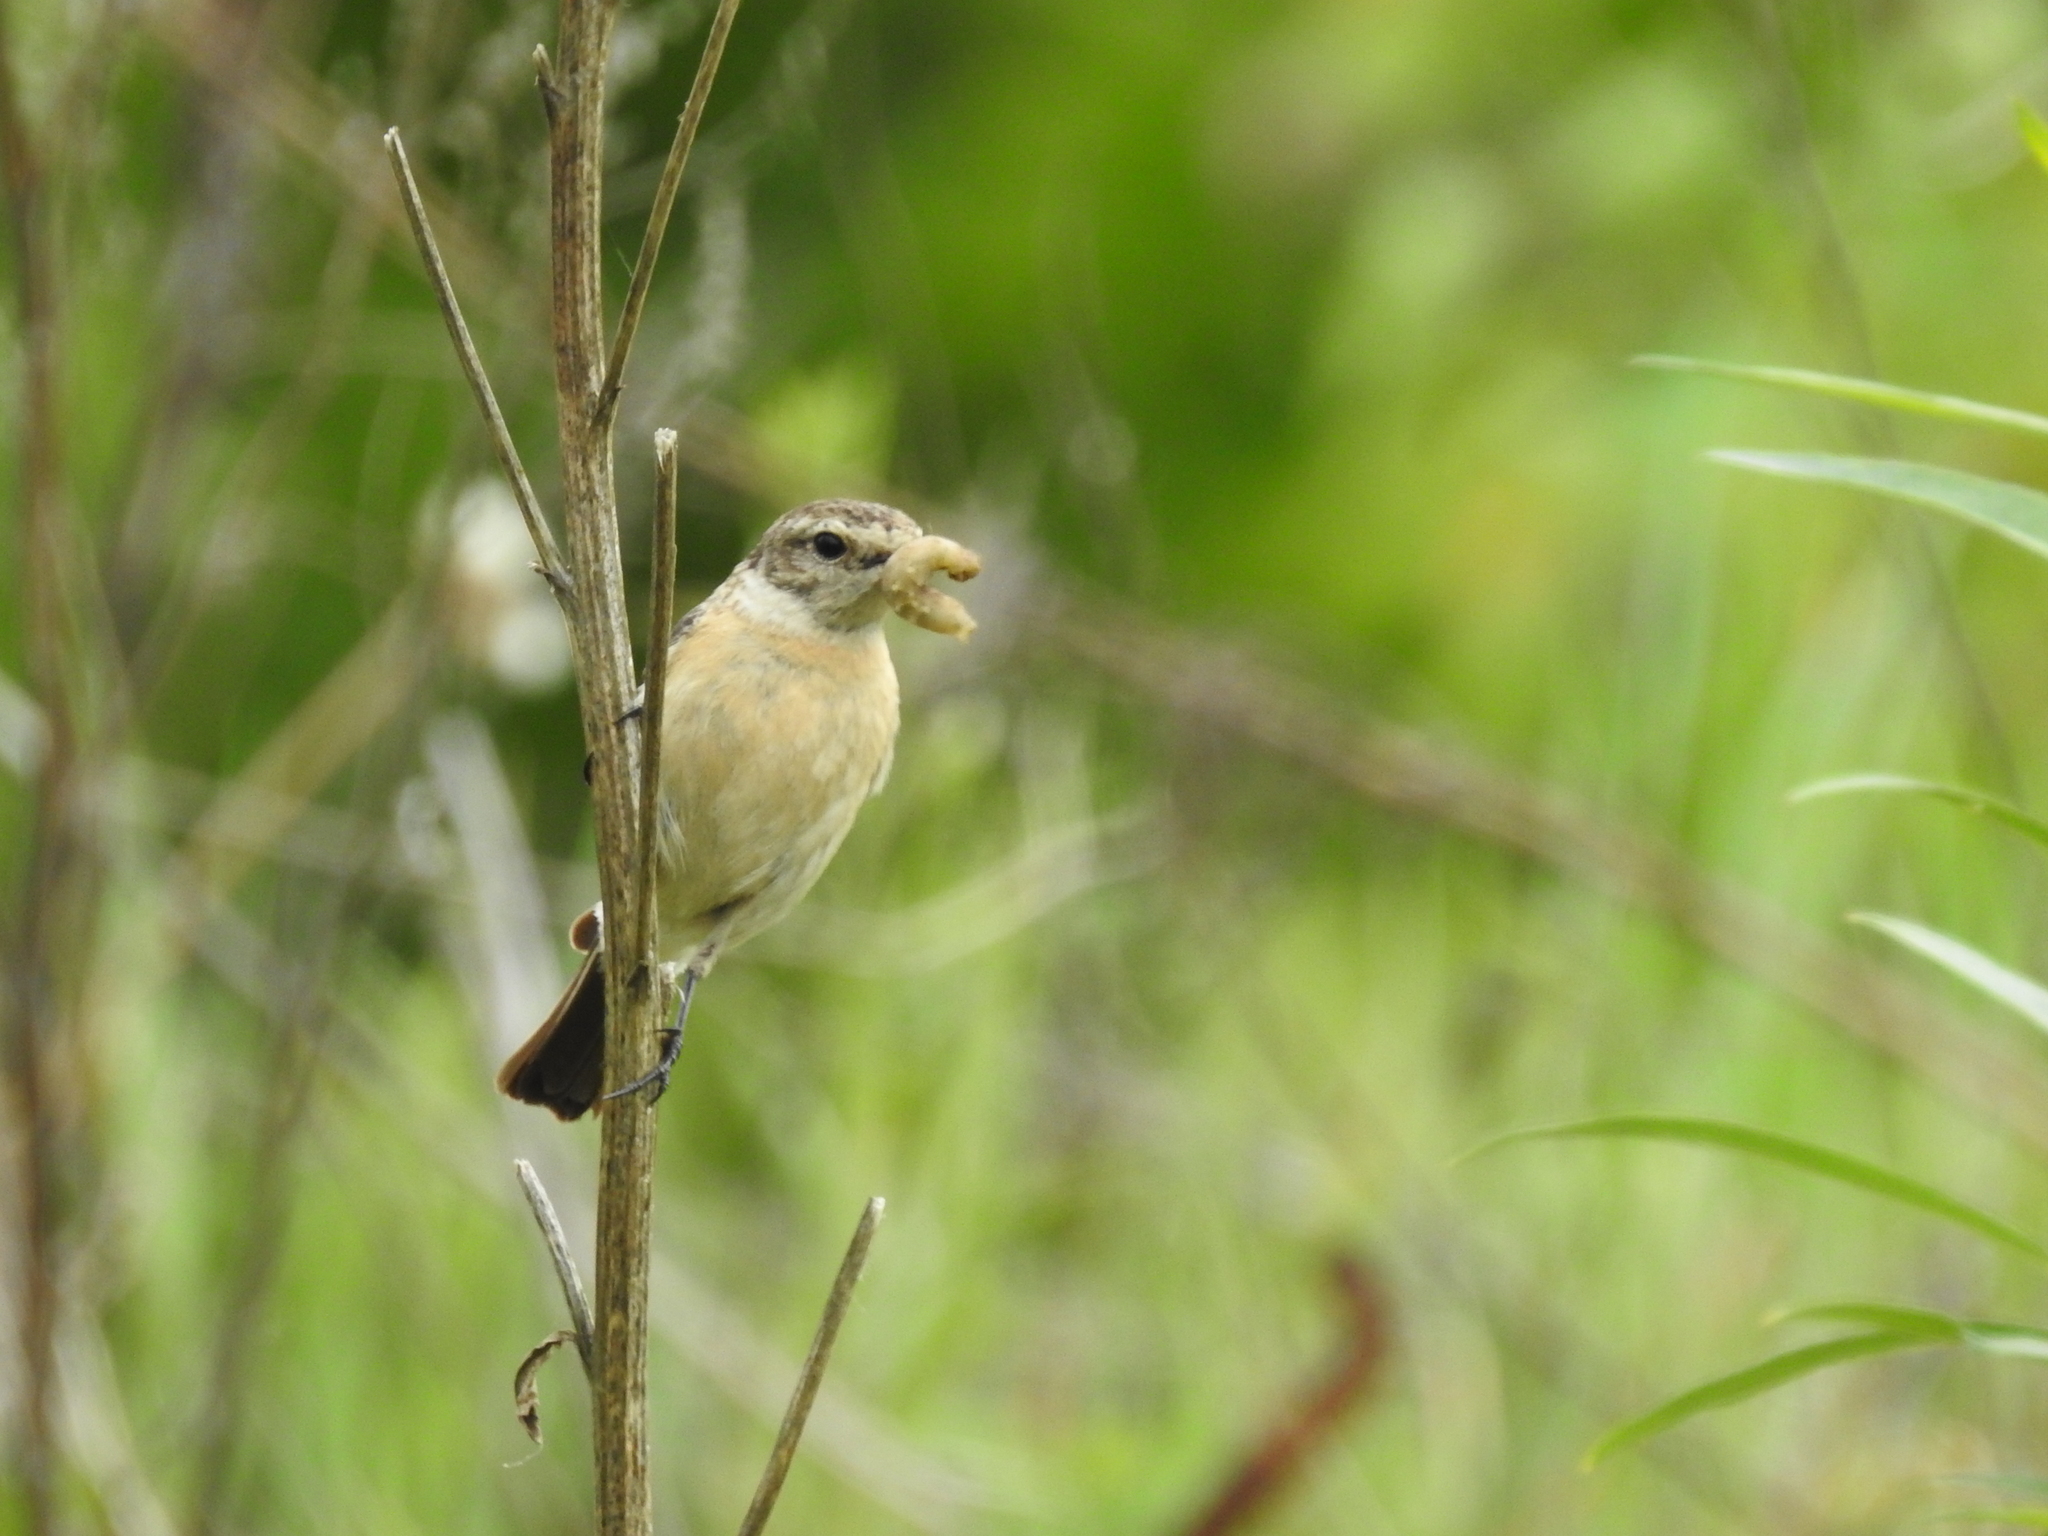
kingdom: Animalia
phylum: Chordata
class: Aves
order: Passeriformes
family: Muscicapidae
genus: Saxicola
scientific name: Saxicola maurus
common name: Siberian stonechat
